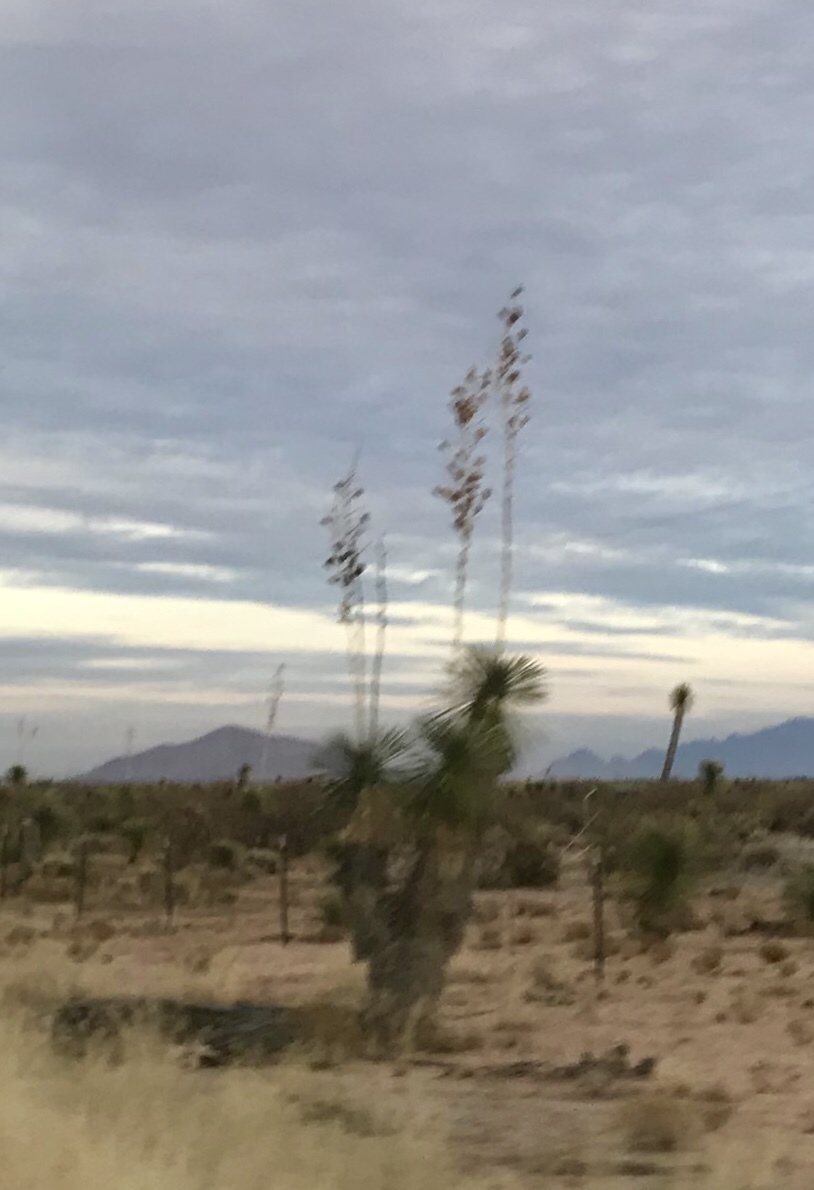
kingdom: Plantae
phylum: Tracheophyta
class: Liliopsida
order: Asparagales
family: Asparagaceae
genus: Yucca
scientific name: Yucca elata
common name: Palmella
